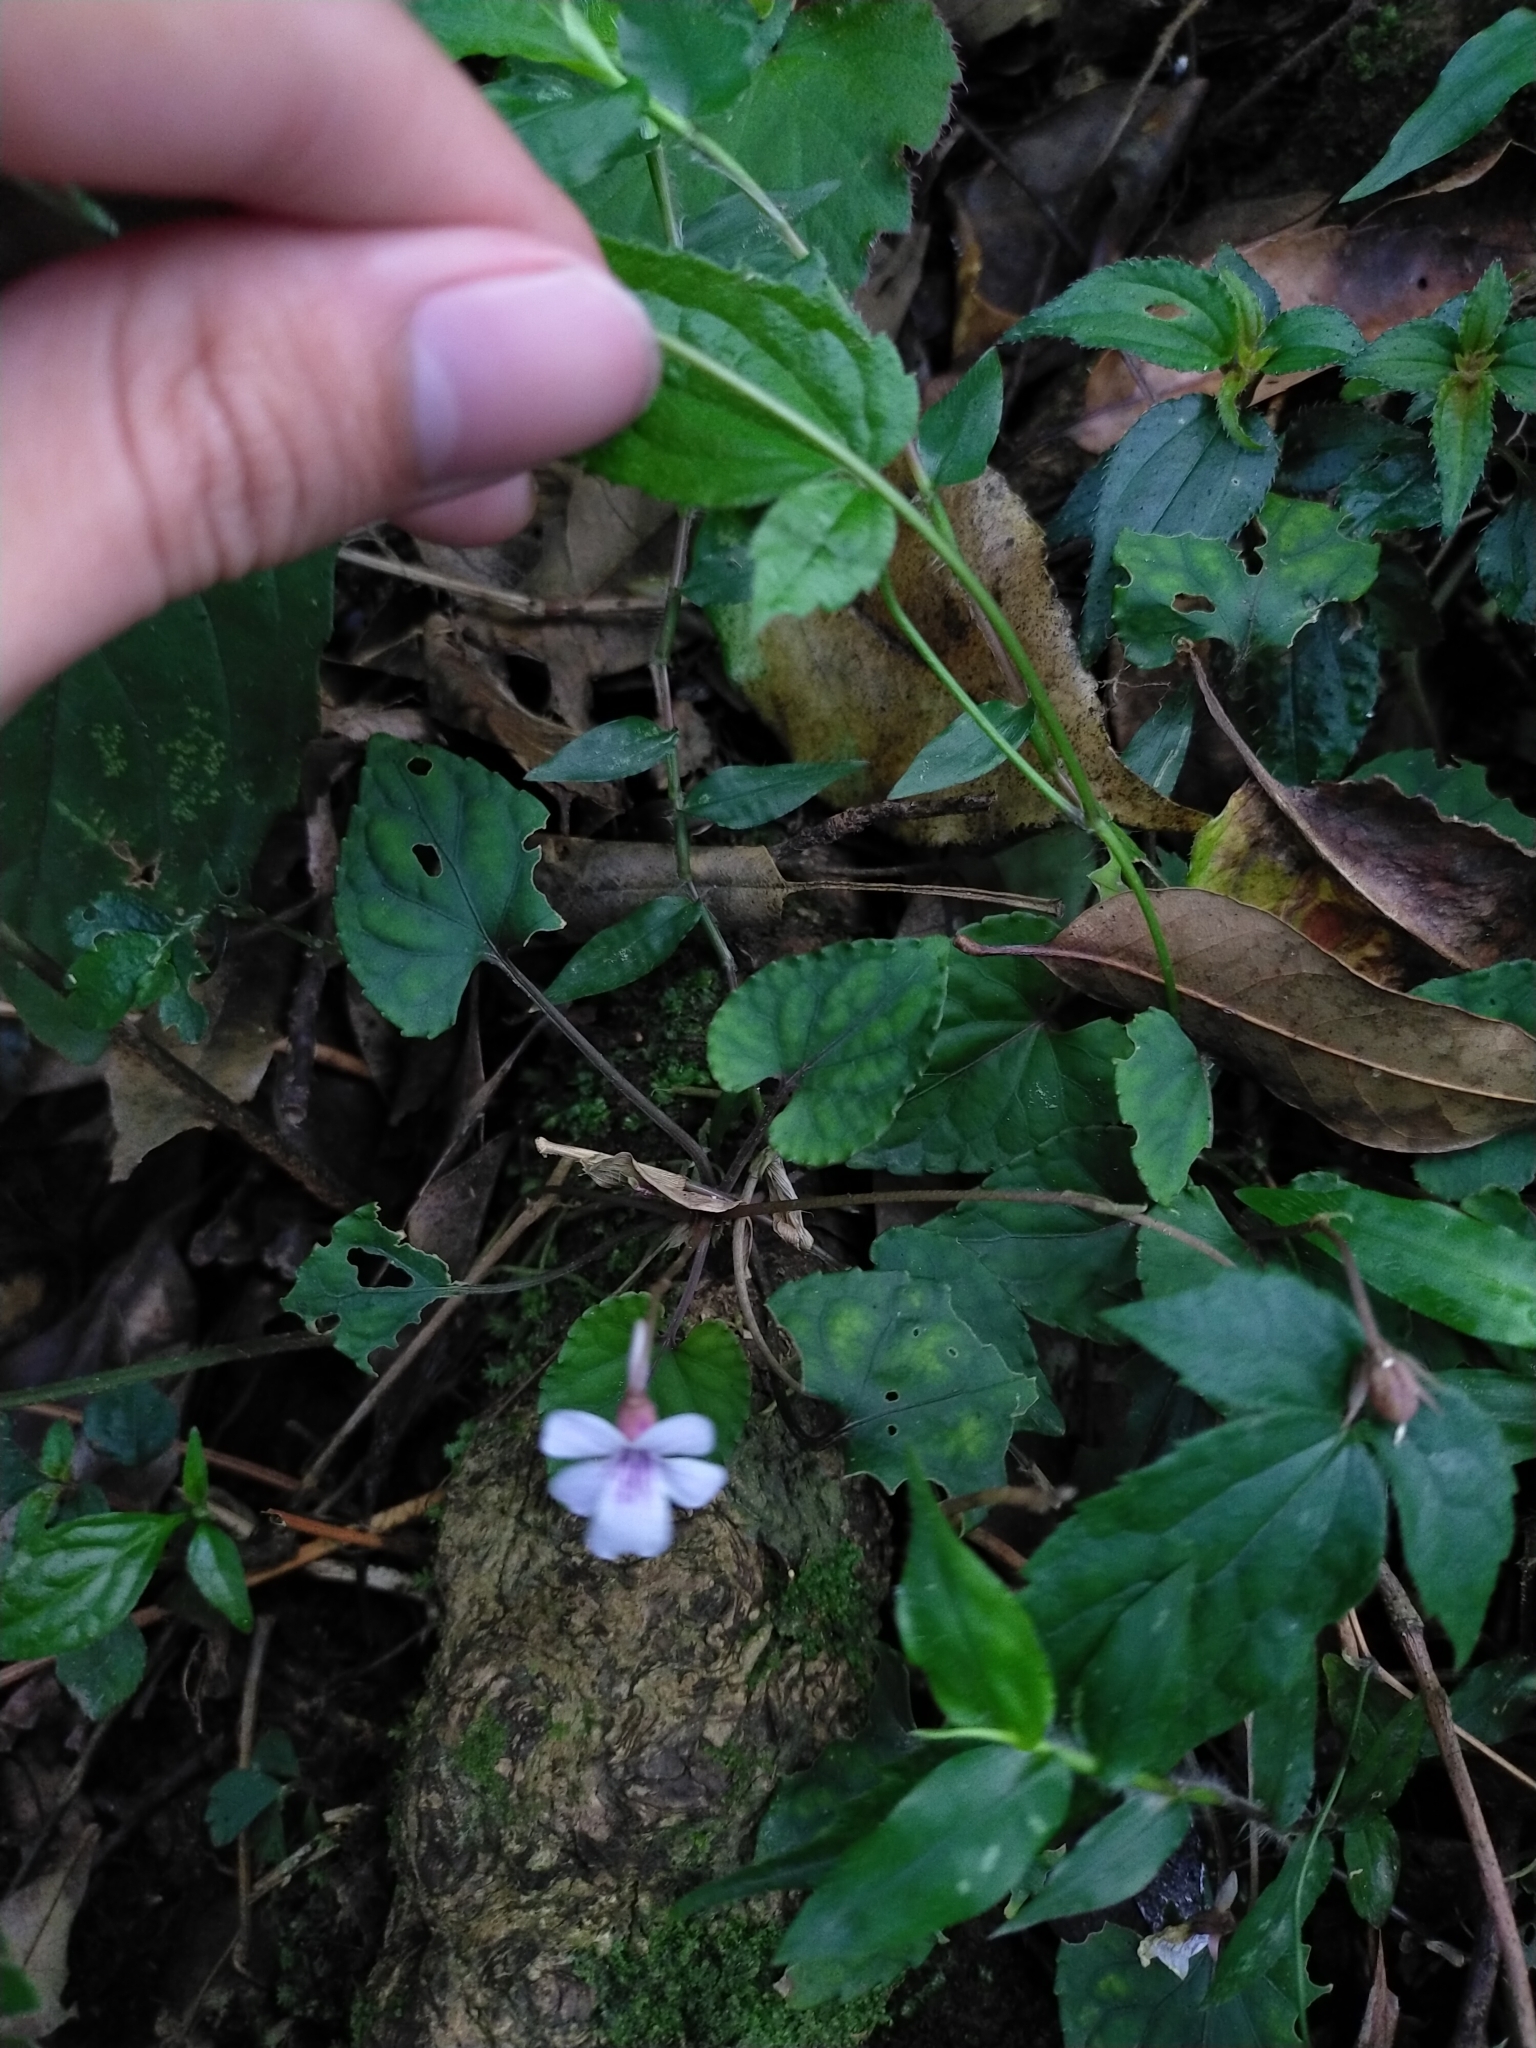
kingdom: Plantae
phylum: Tracheophyta
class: Magnoliopsida
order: Malpighiales
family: Violaceae
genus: Viola
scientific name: Viola formosana
